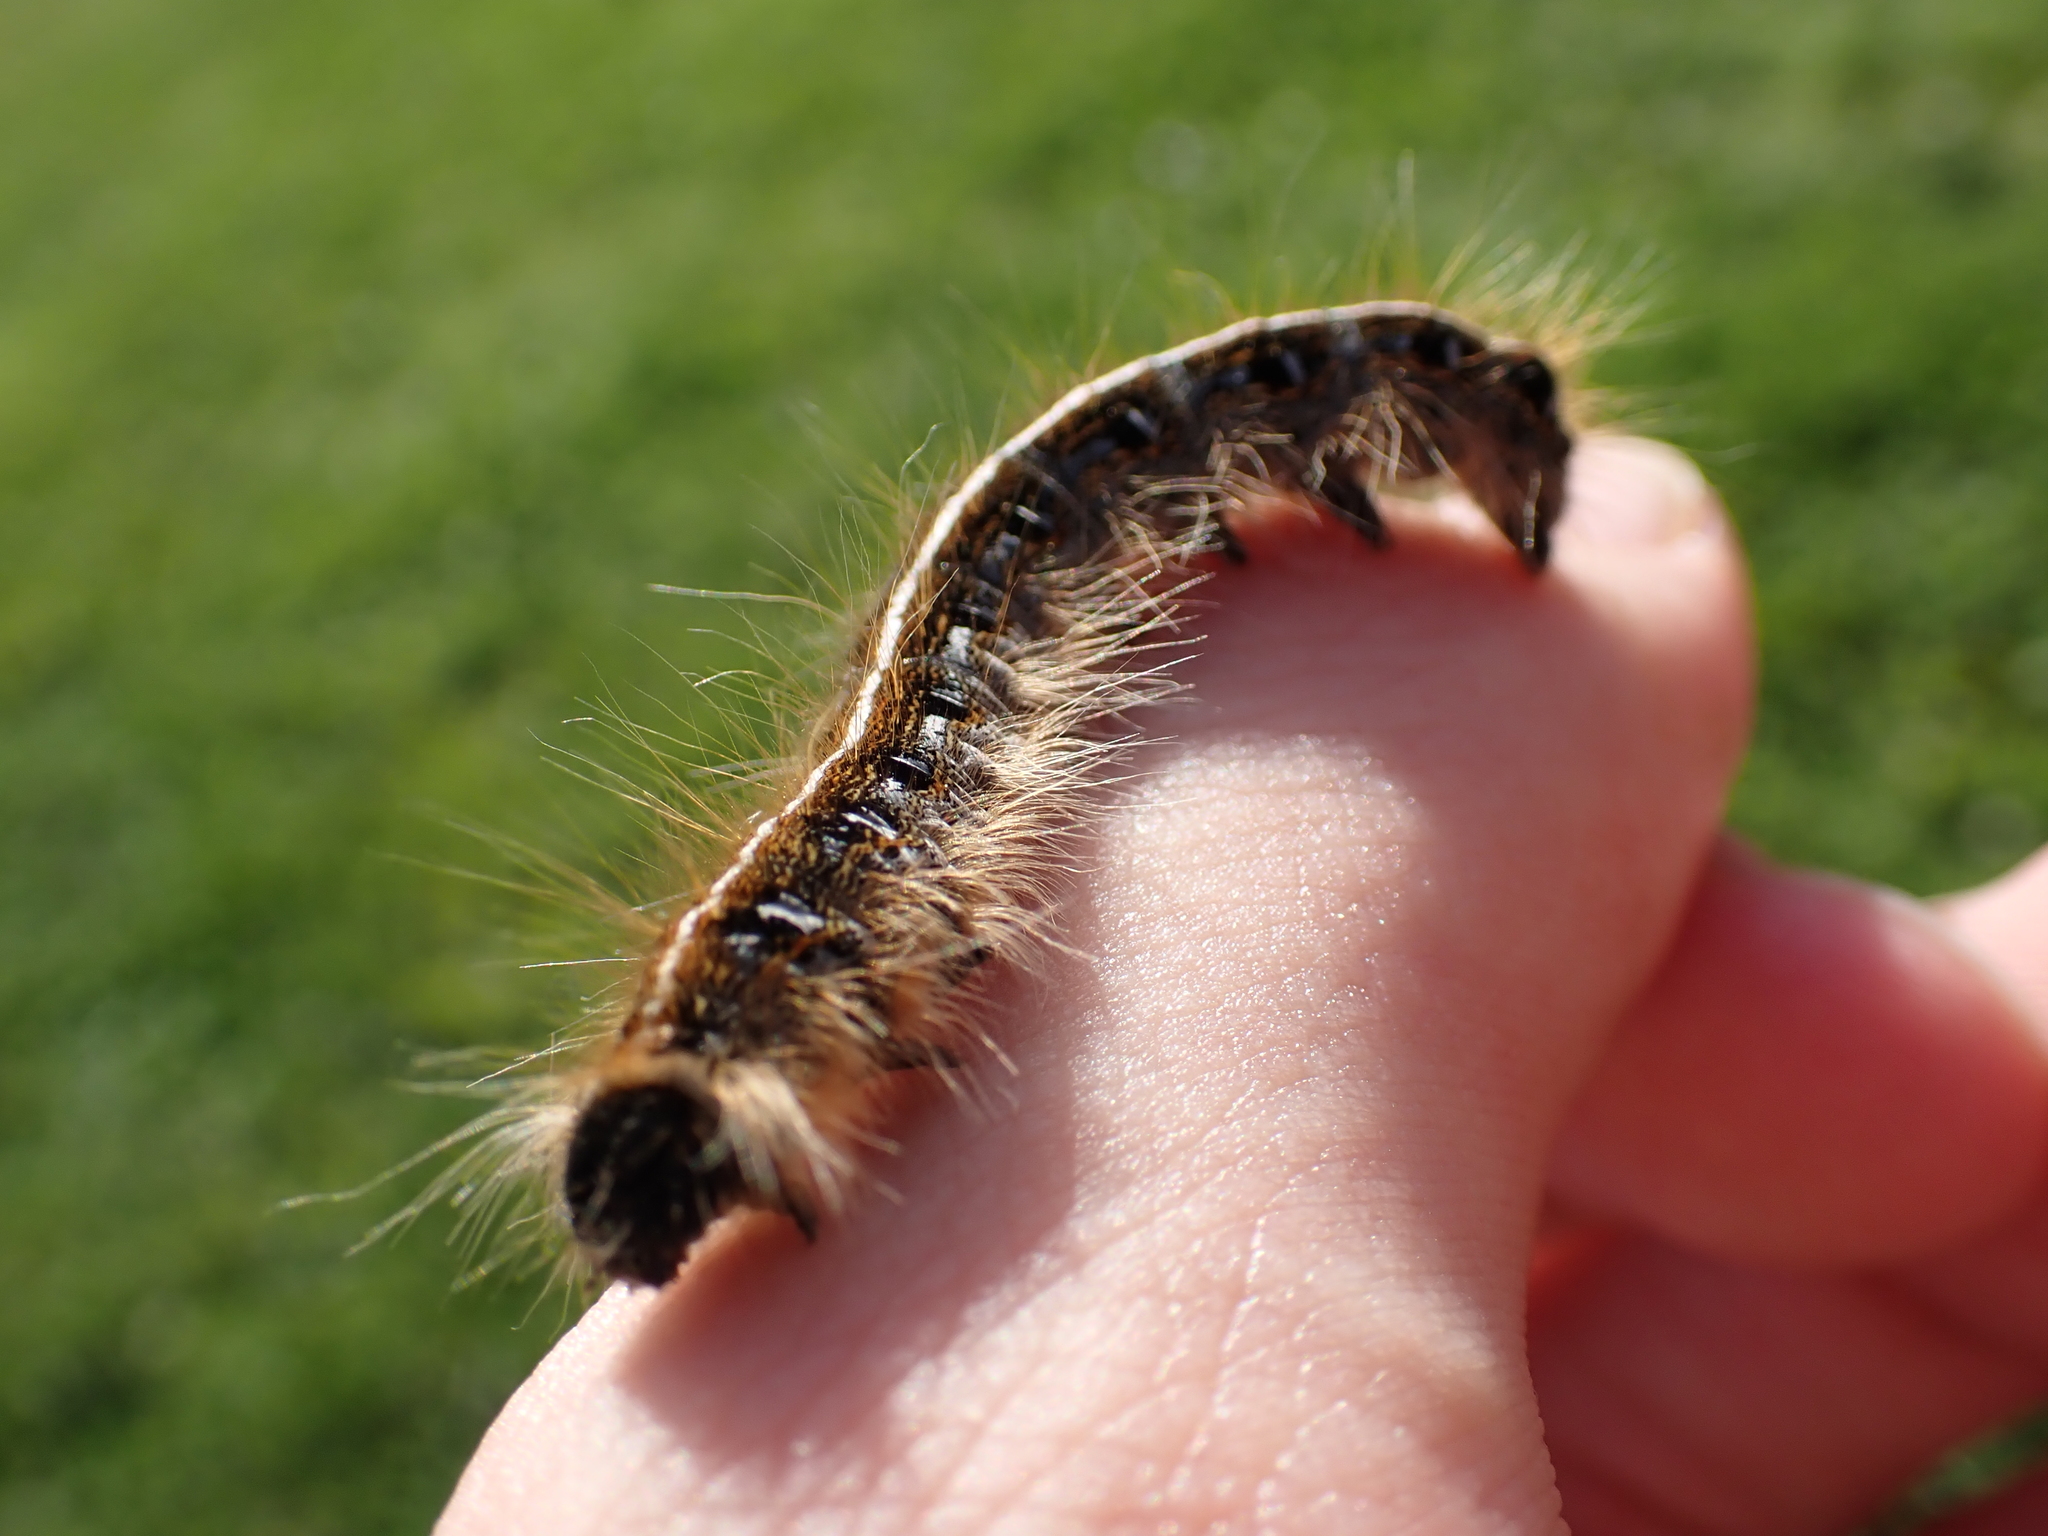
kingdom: Animalia
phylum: Arthropoda
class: Insecta
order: Lepidoptera
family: Lasiocampidae
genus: Malacosoma
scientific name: Malacosoma americana
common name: Eastern tent caterpillar moth
